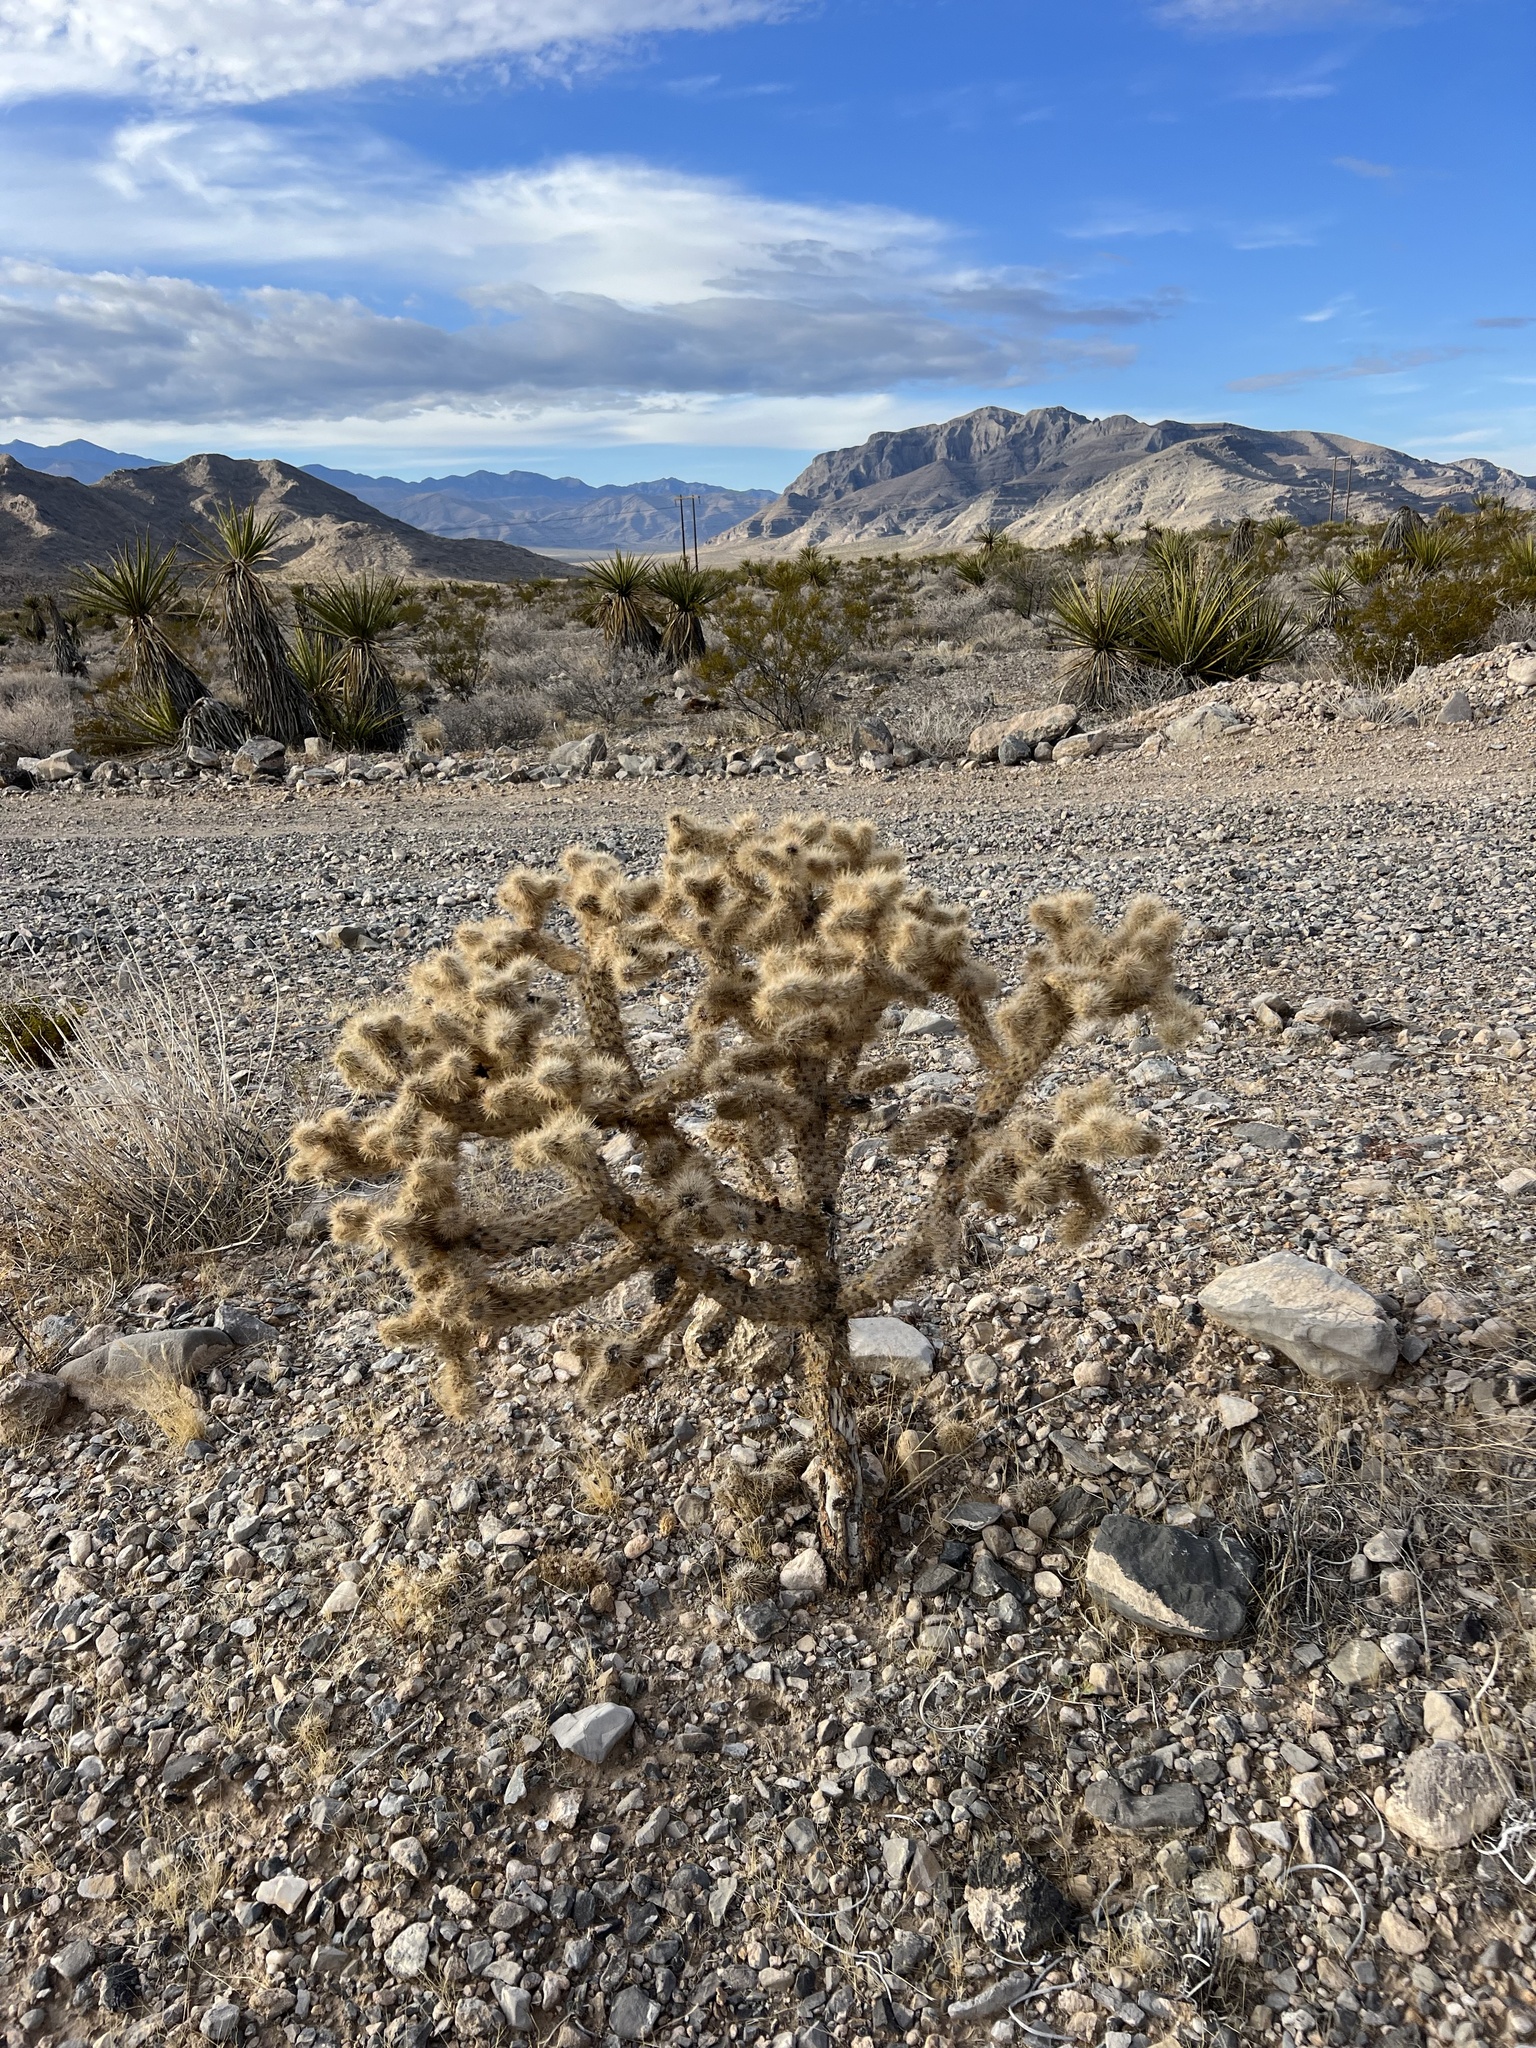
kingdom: Plantae
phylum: Tracheophyta
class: Magnoliopsida
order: Caryophyllales
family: Cactaceae
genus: Cylindropuntia
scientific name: Cylindropuntia echinocarpa
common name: Ground cholla
